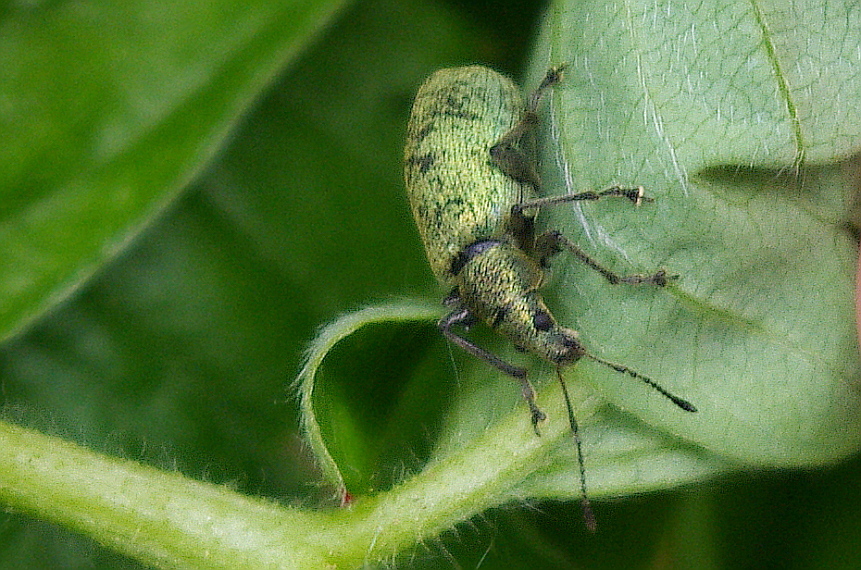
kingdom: Animalia
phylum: Arthropoda
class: Insecta
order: Coleoptera
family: Curculionidae
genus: Phyllobius
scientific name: Phyllobius pomaceus
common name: Green nettle weevil
